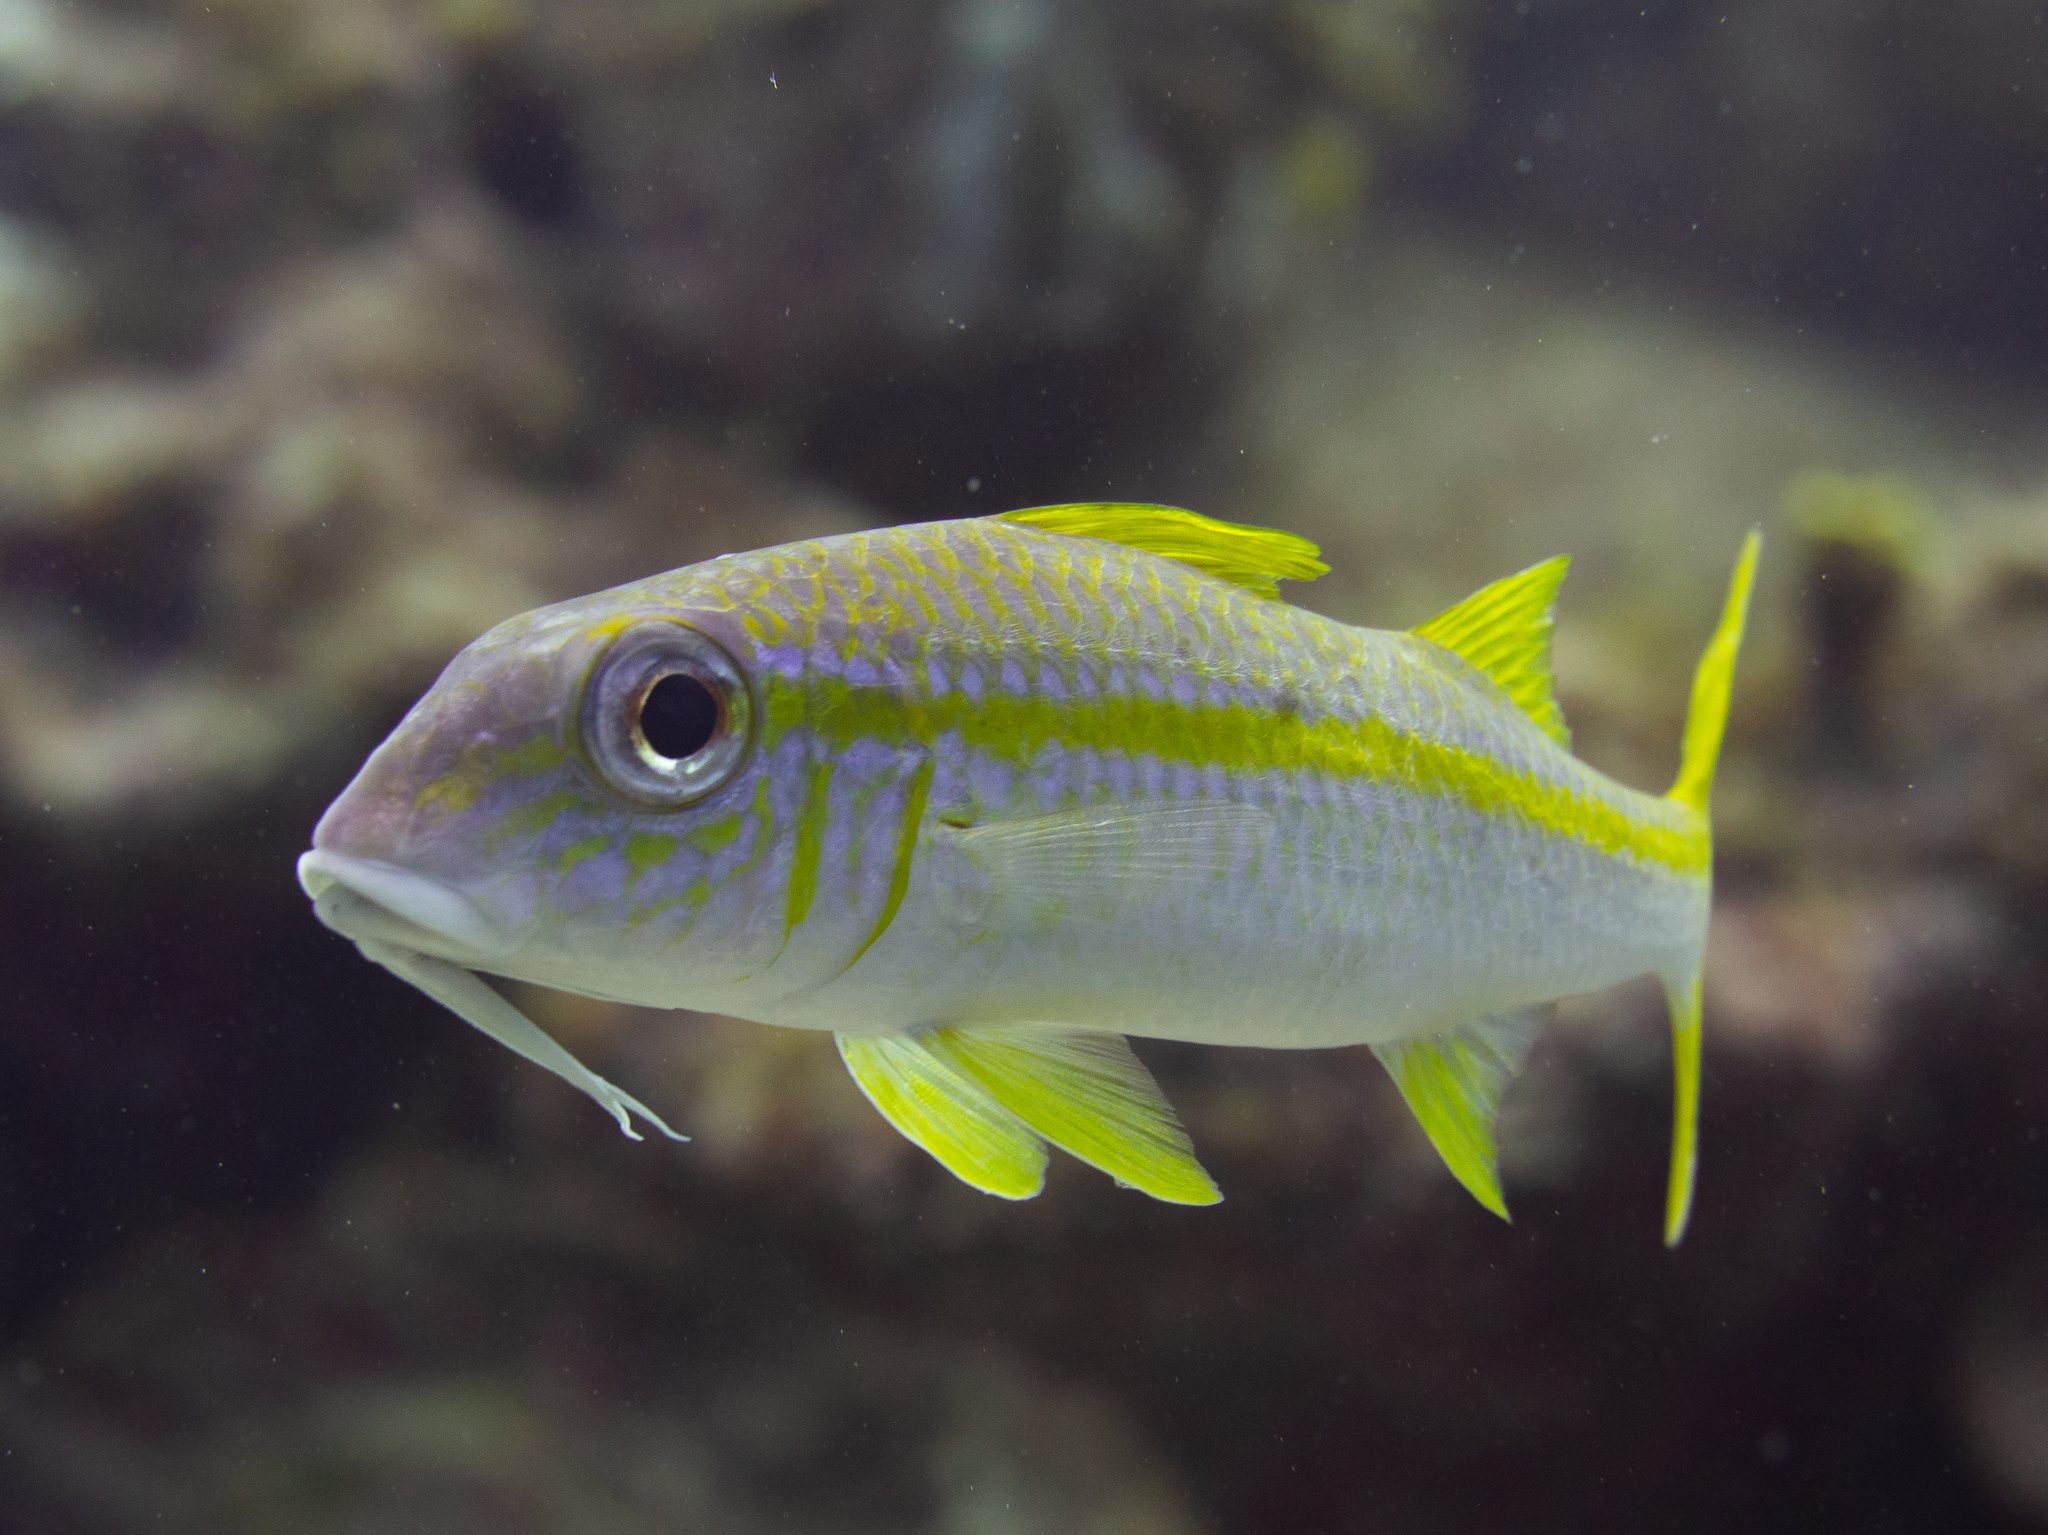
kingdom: Animalia
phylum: Chordata
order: Perciformes
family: Mullidae
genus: Mulloidichthys
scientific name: Mulloidichthys martinicus
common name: Yellow goatfish
